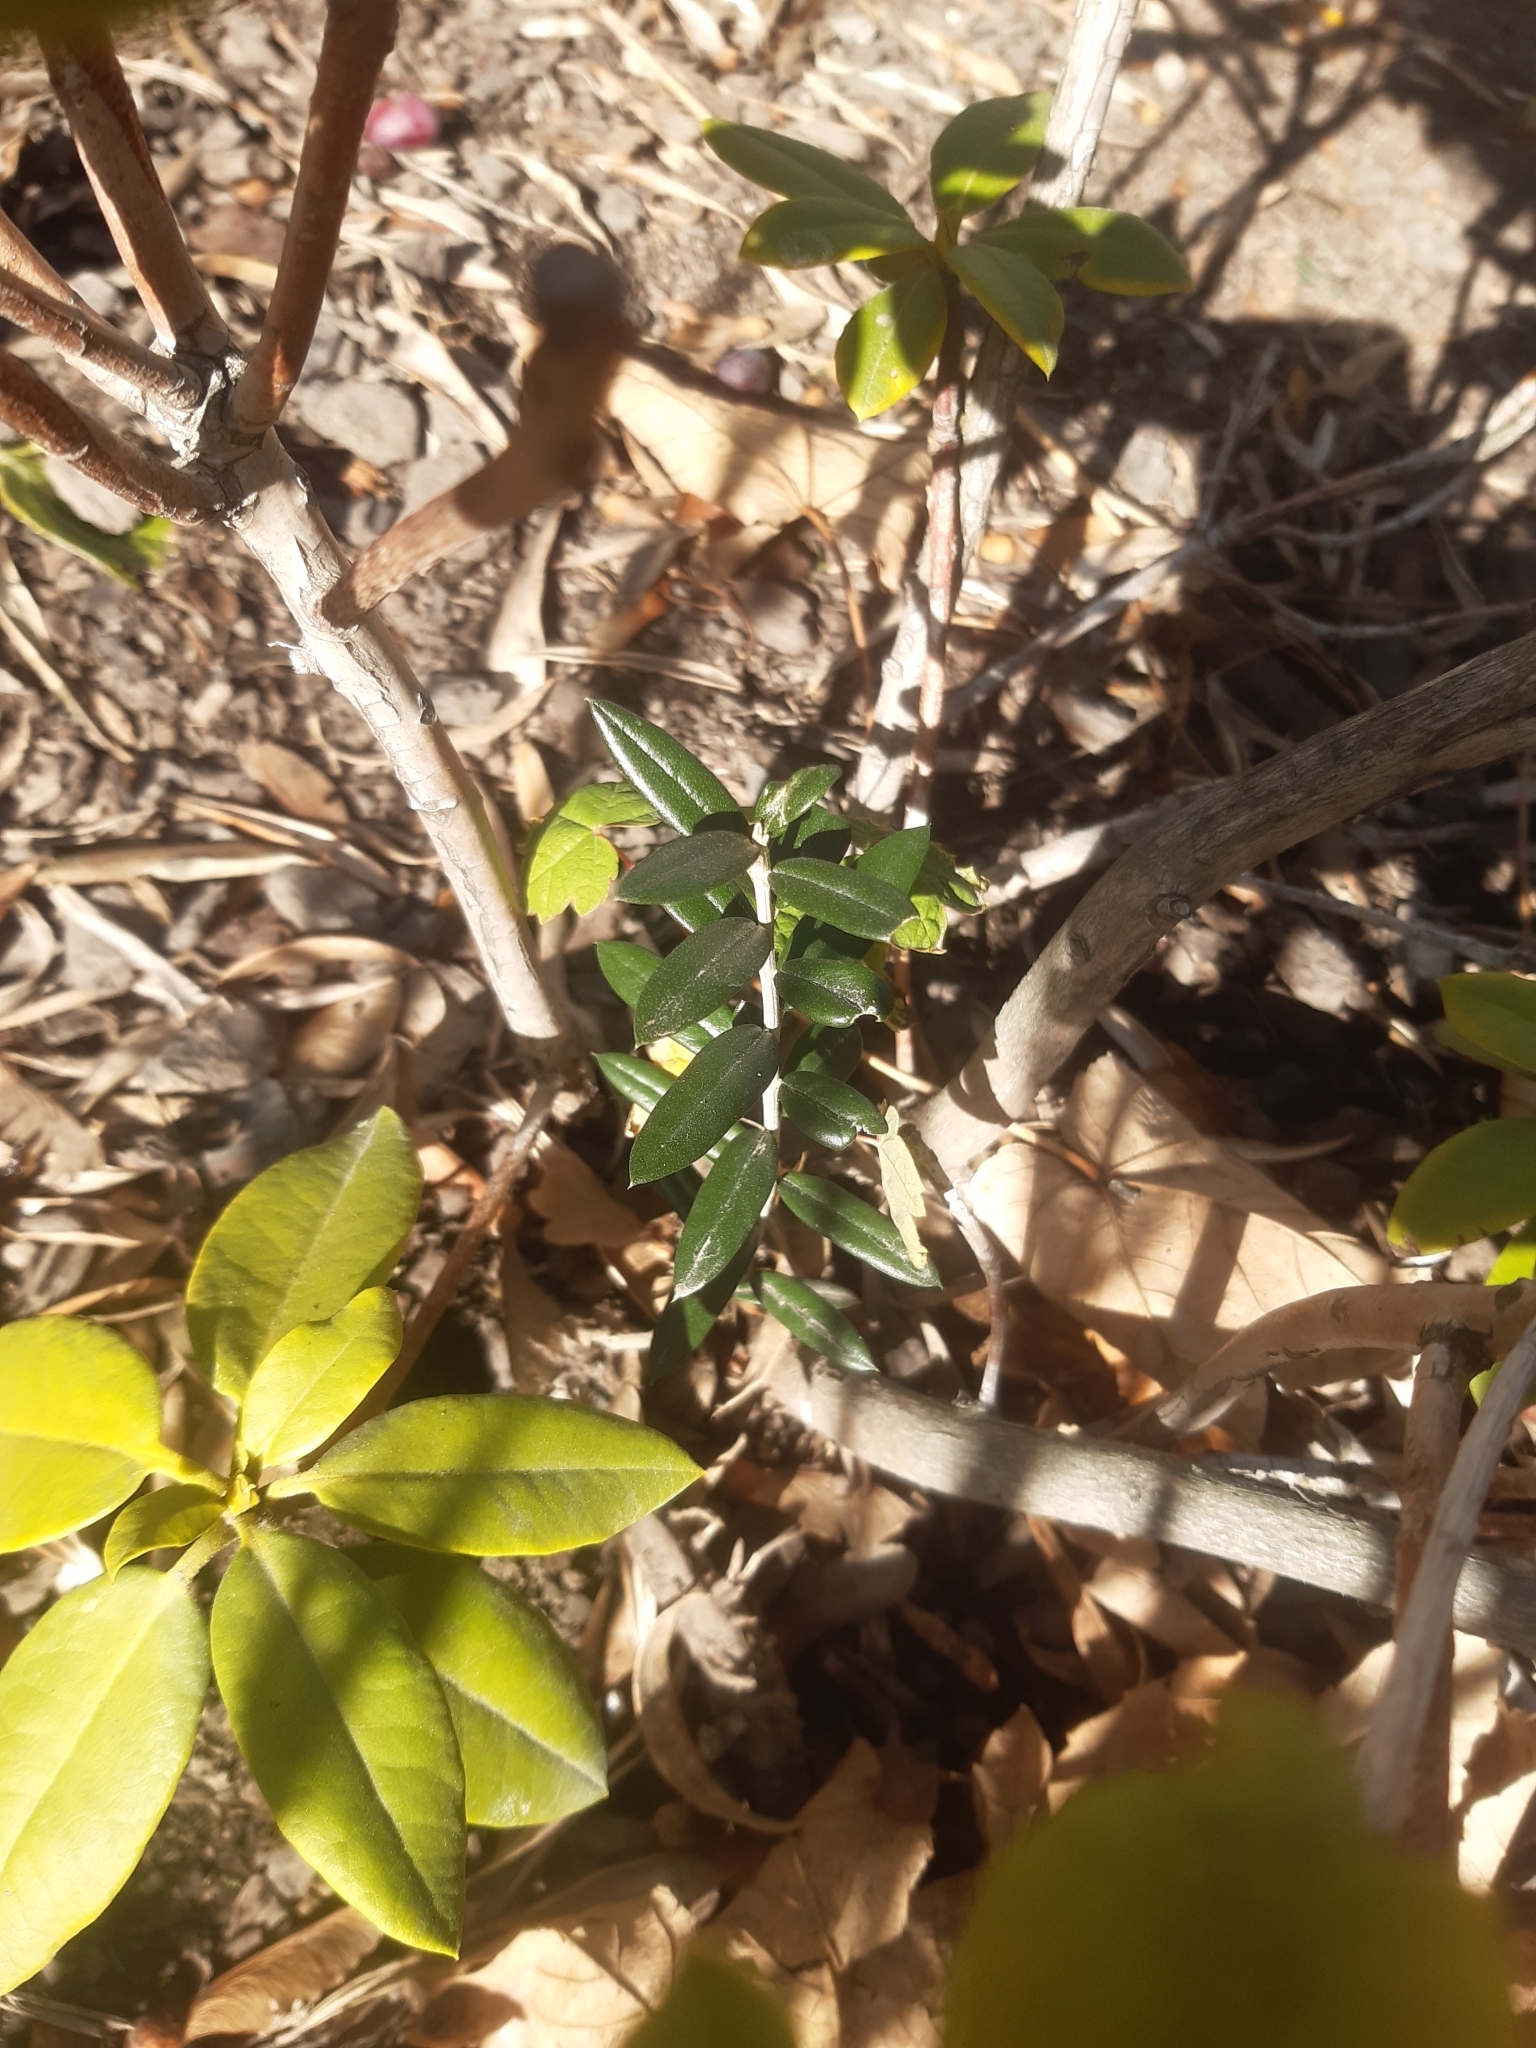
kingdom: Plantae
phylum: Tracheophyta
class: Magnoliopsida
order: Lamiales
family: Oleaceae
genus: Olea
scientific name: Olea europaea
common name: Olive
